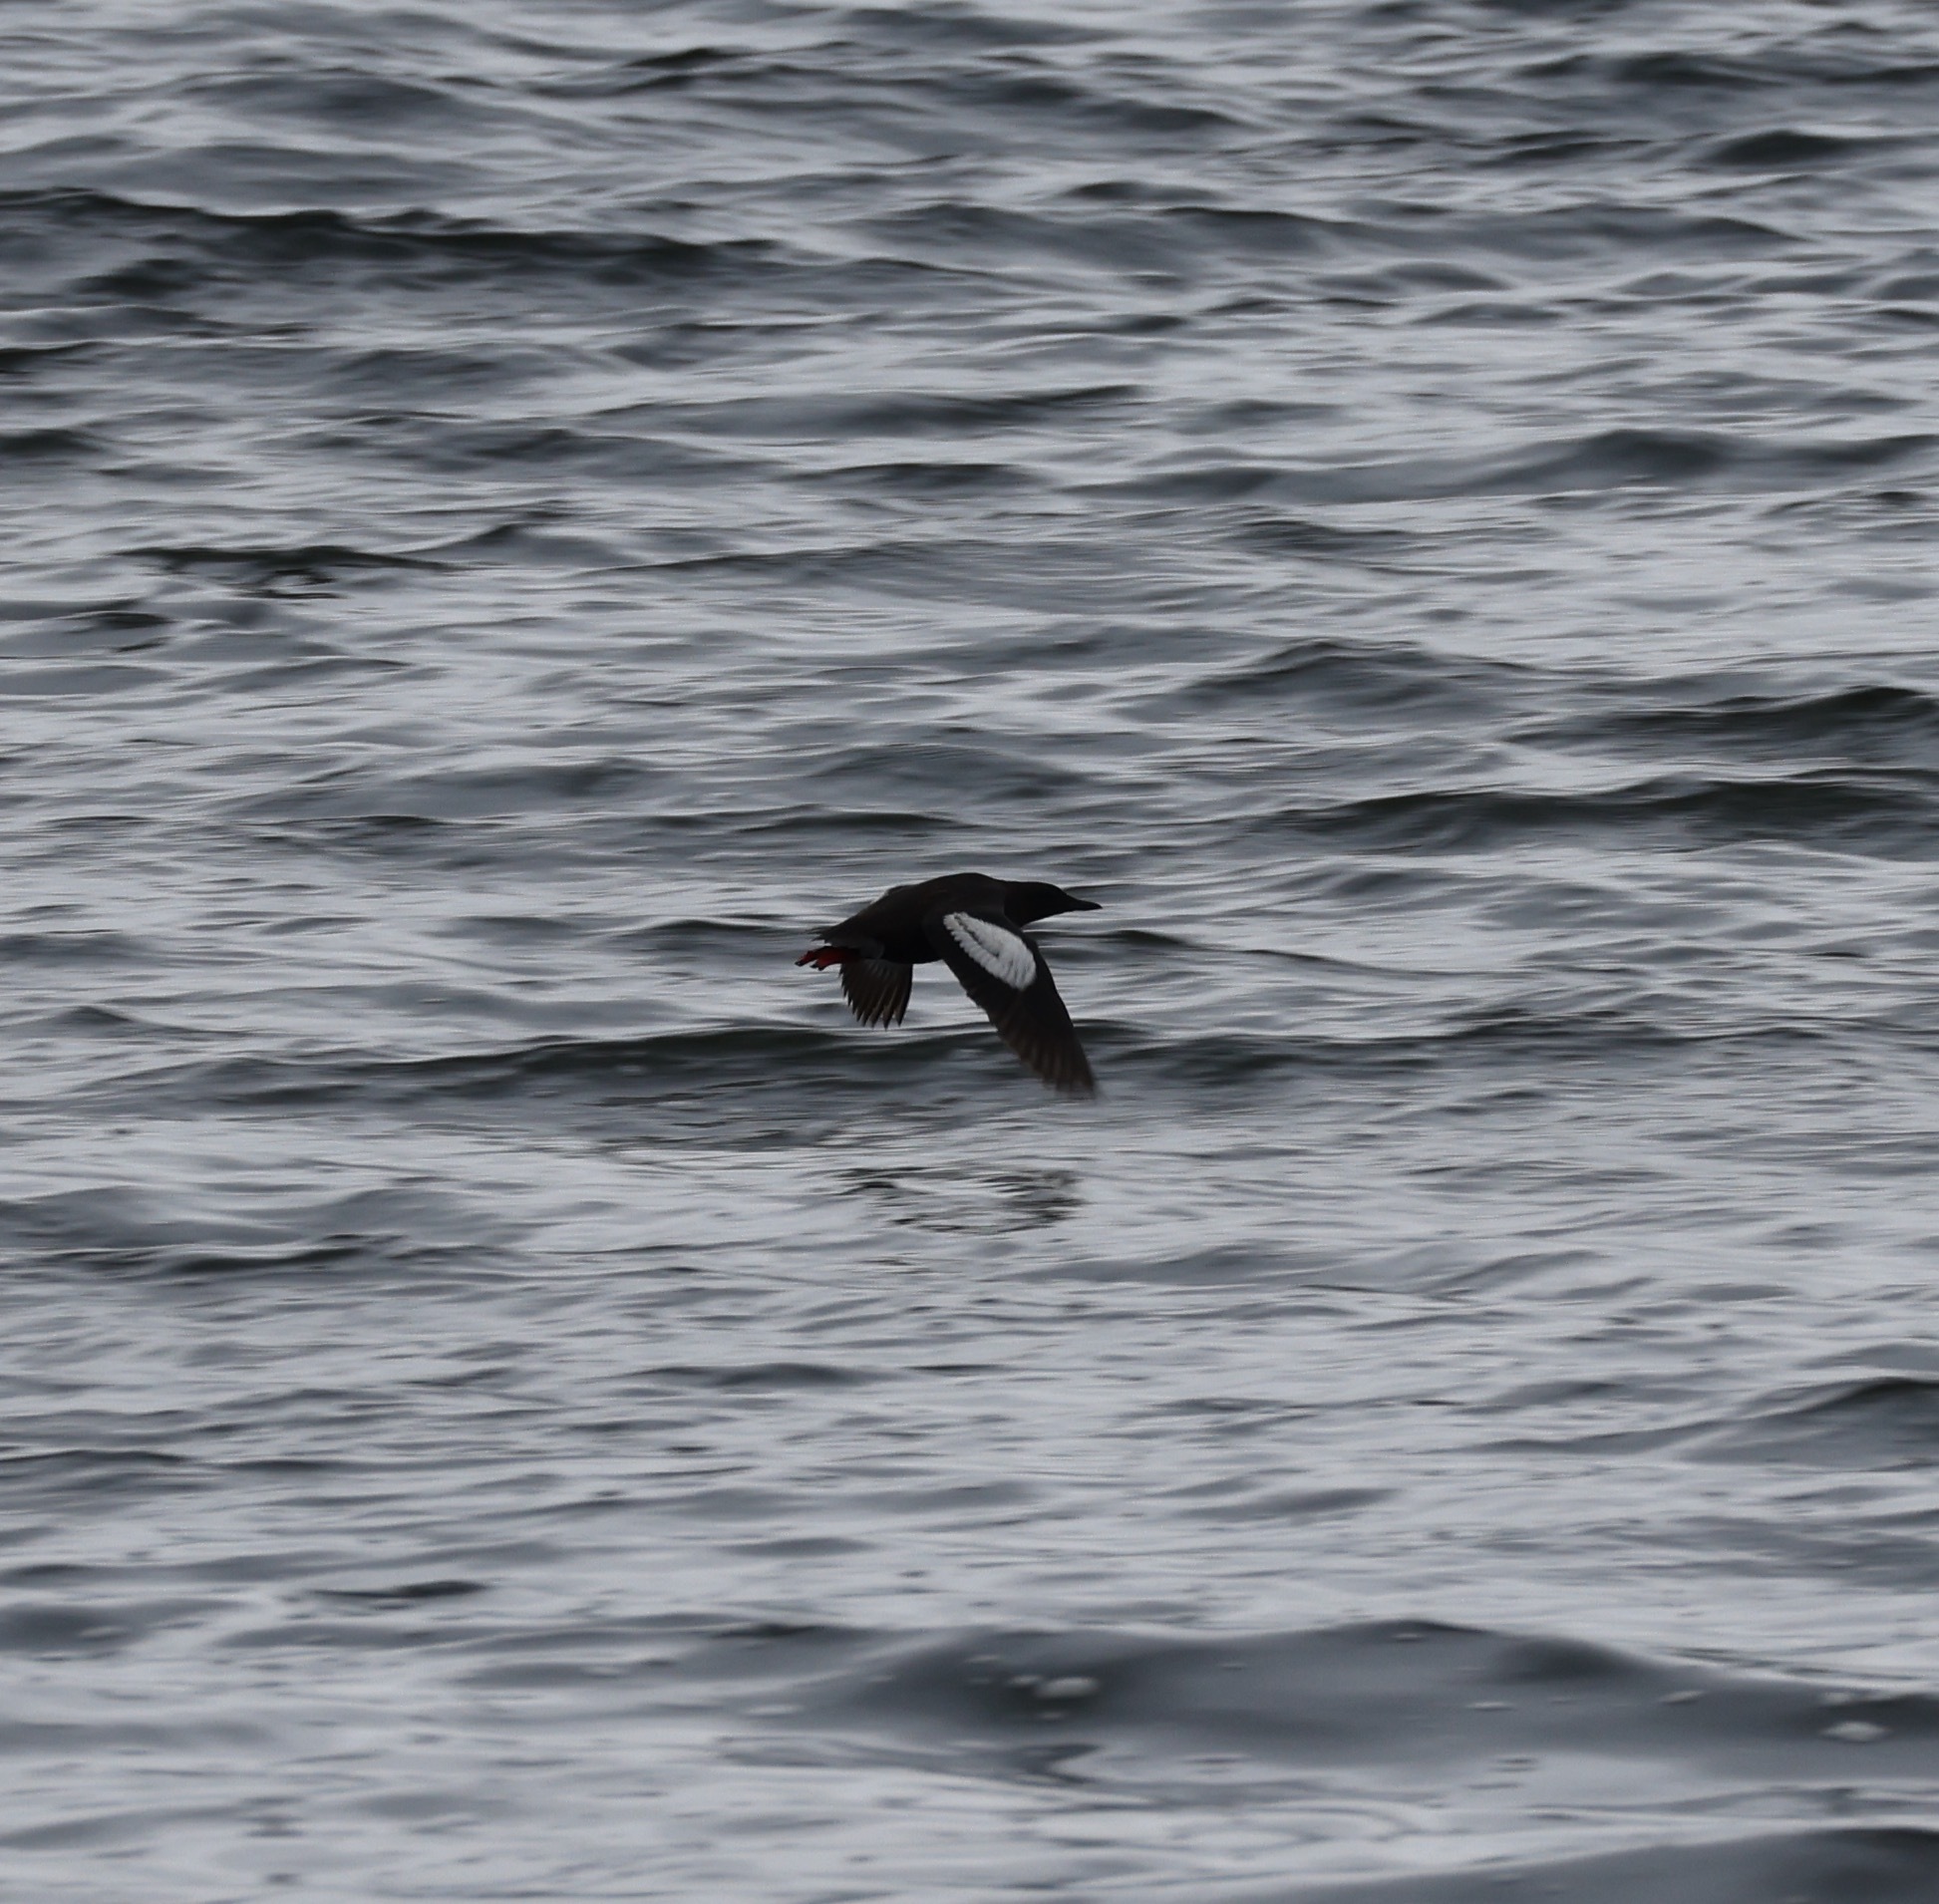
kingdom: Animalia
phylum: Chordata
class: Aves
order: Charadriiformes
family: Alcidae
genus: Cepphus
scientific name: Cepphus grylle
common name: Black guillemot
